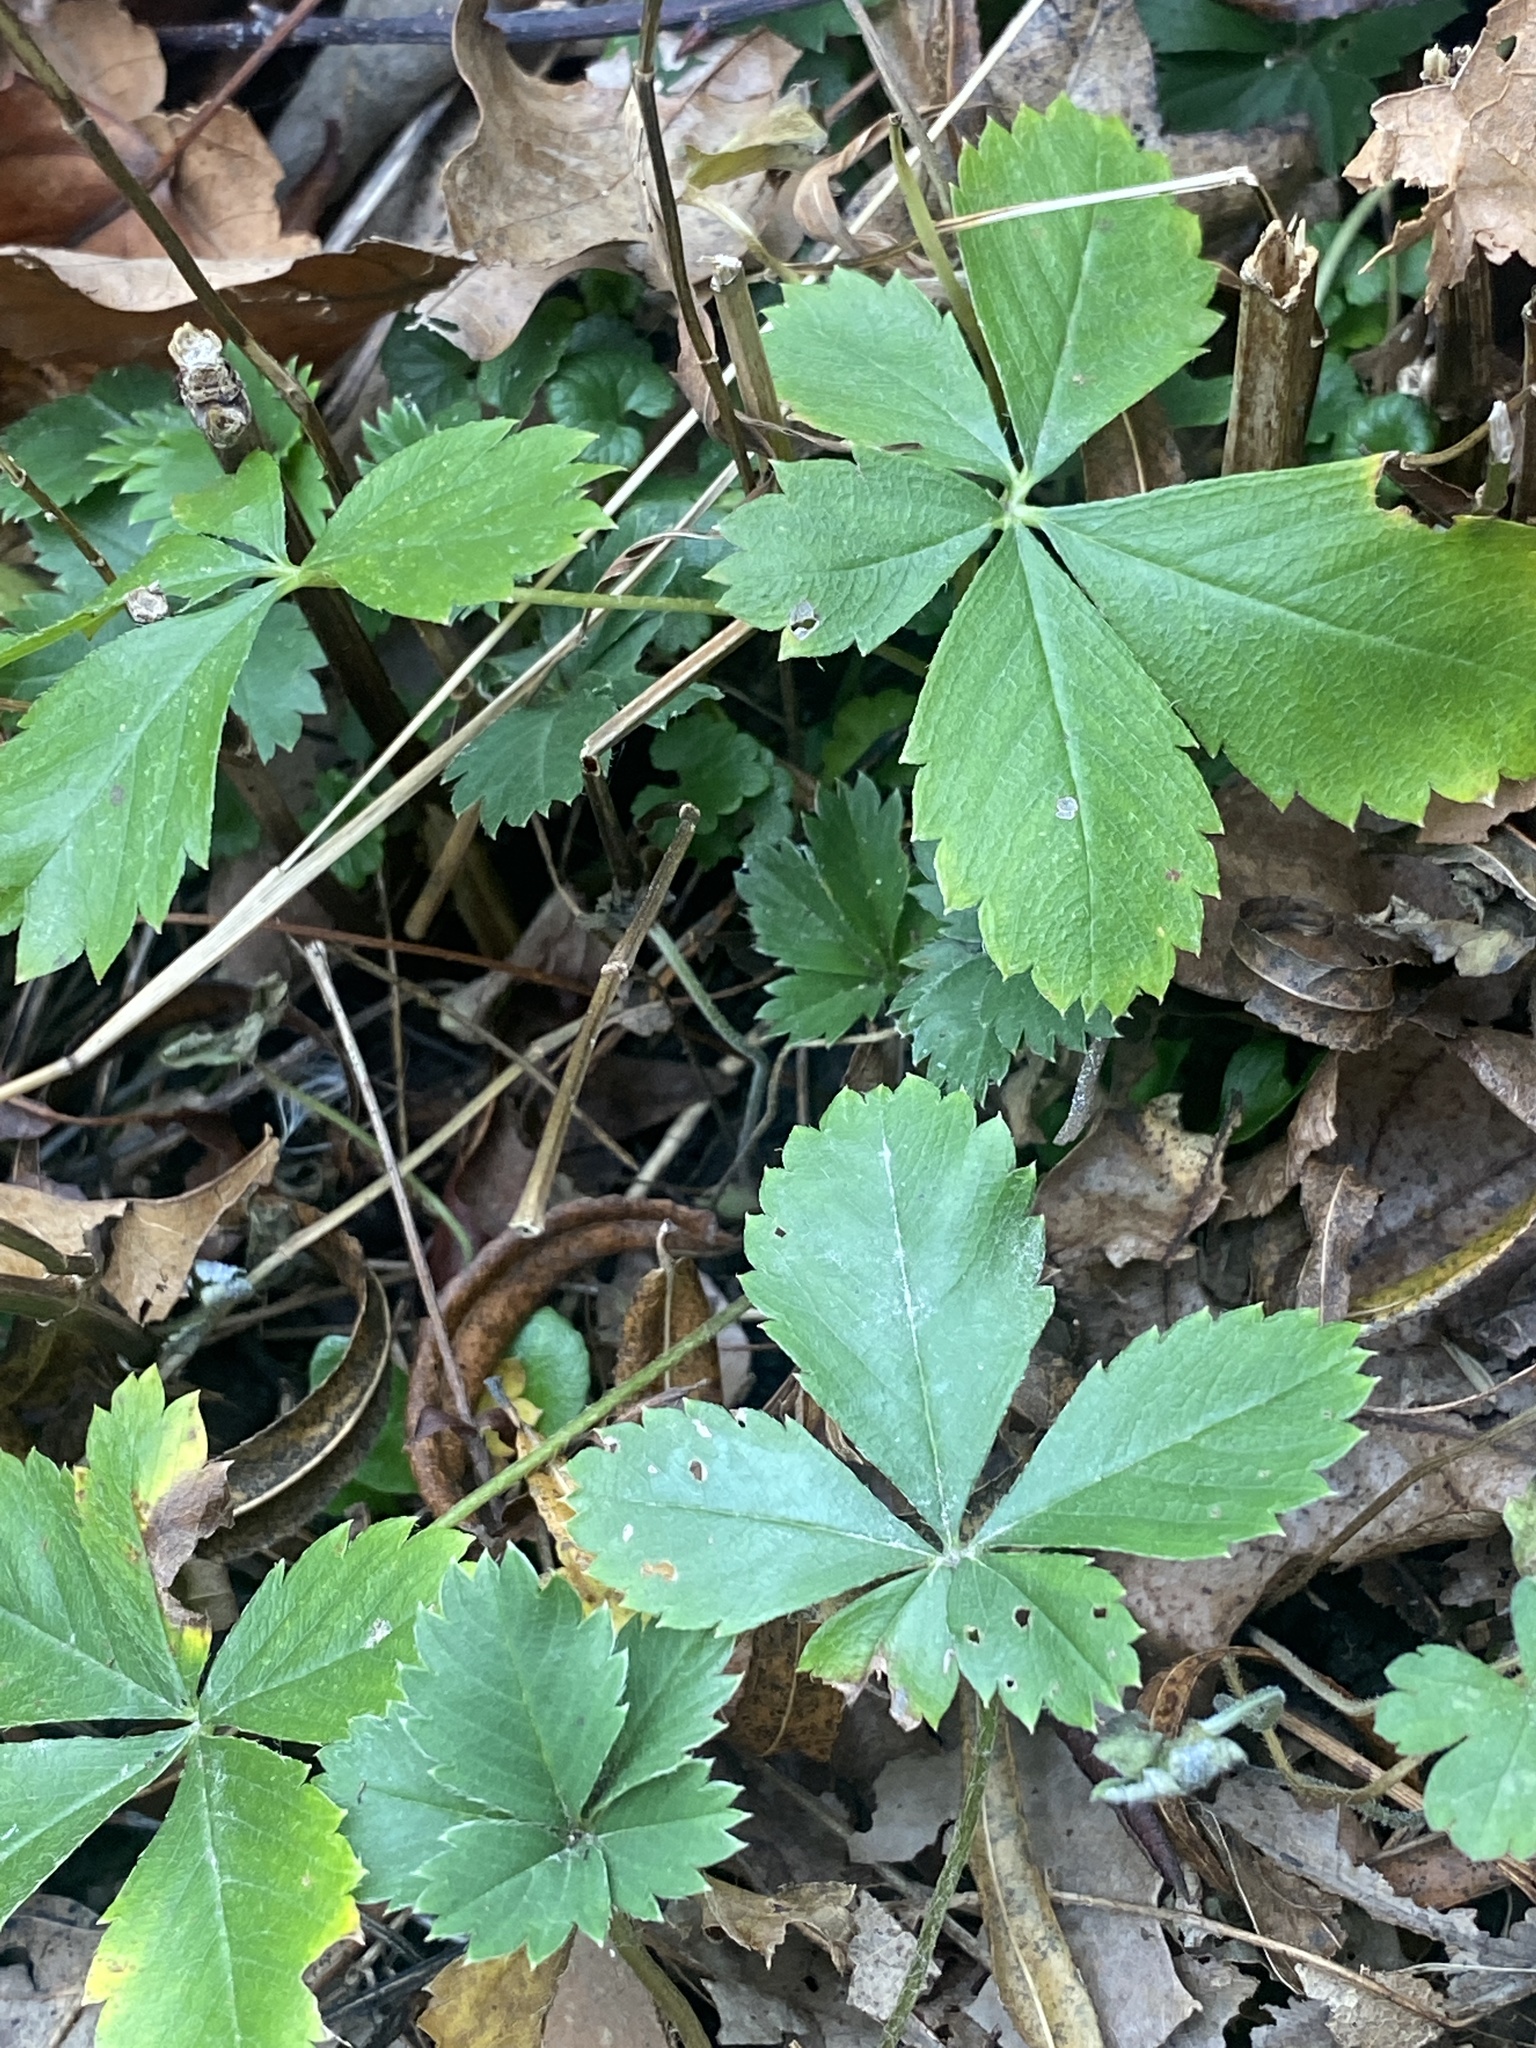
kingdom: Plantae
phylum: Tracheophyta
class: Magnoliopsida
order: Rosales
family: Rosaceae
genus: Potentilla
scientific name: Potentilla canadensis
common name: Canada cinquefoil
